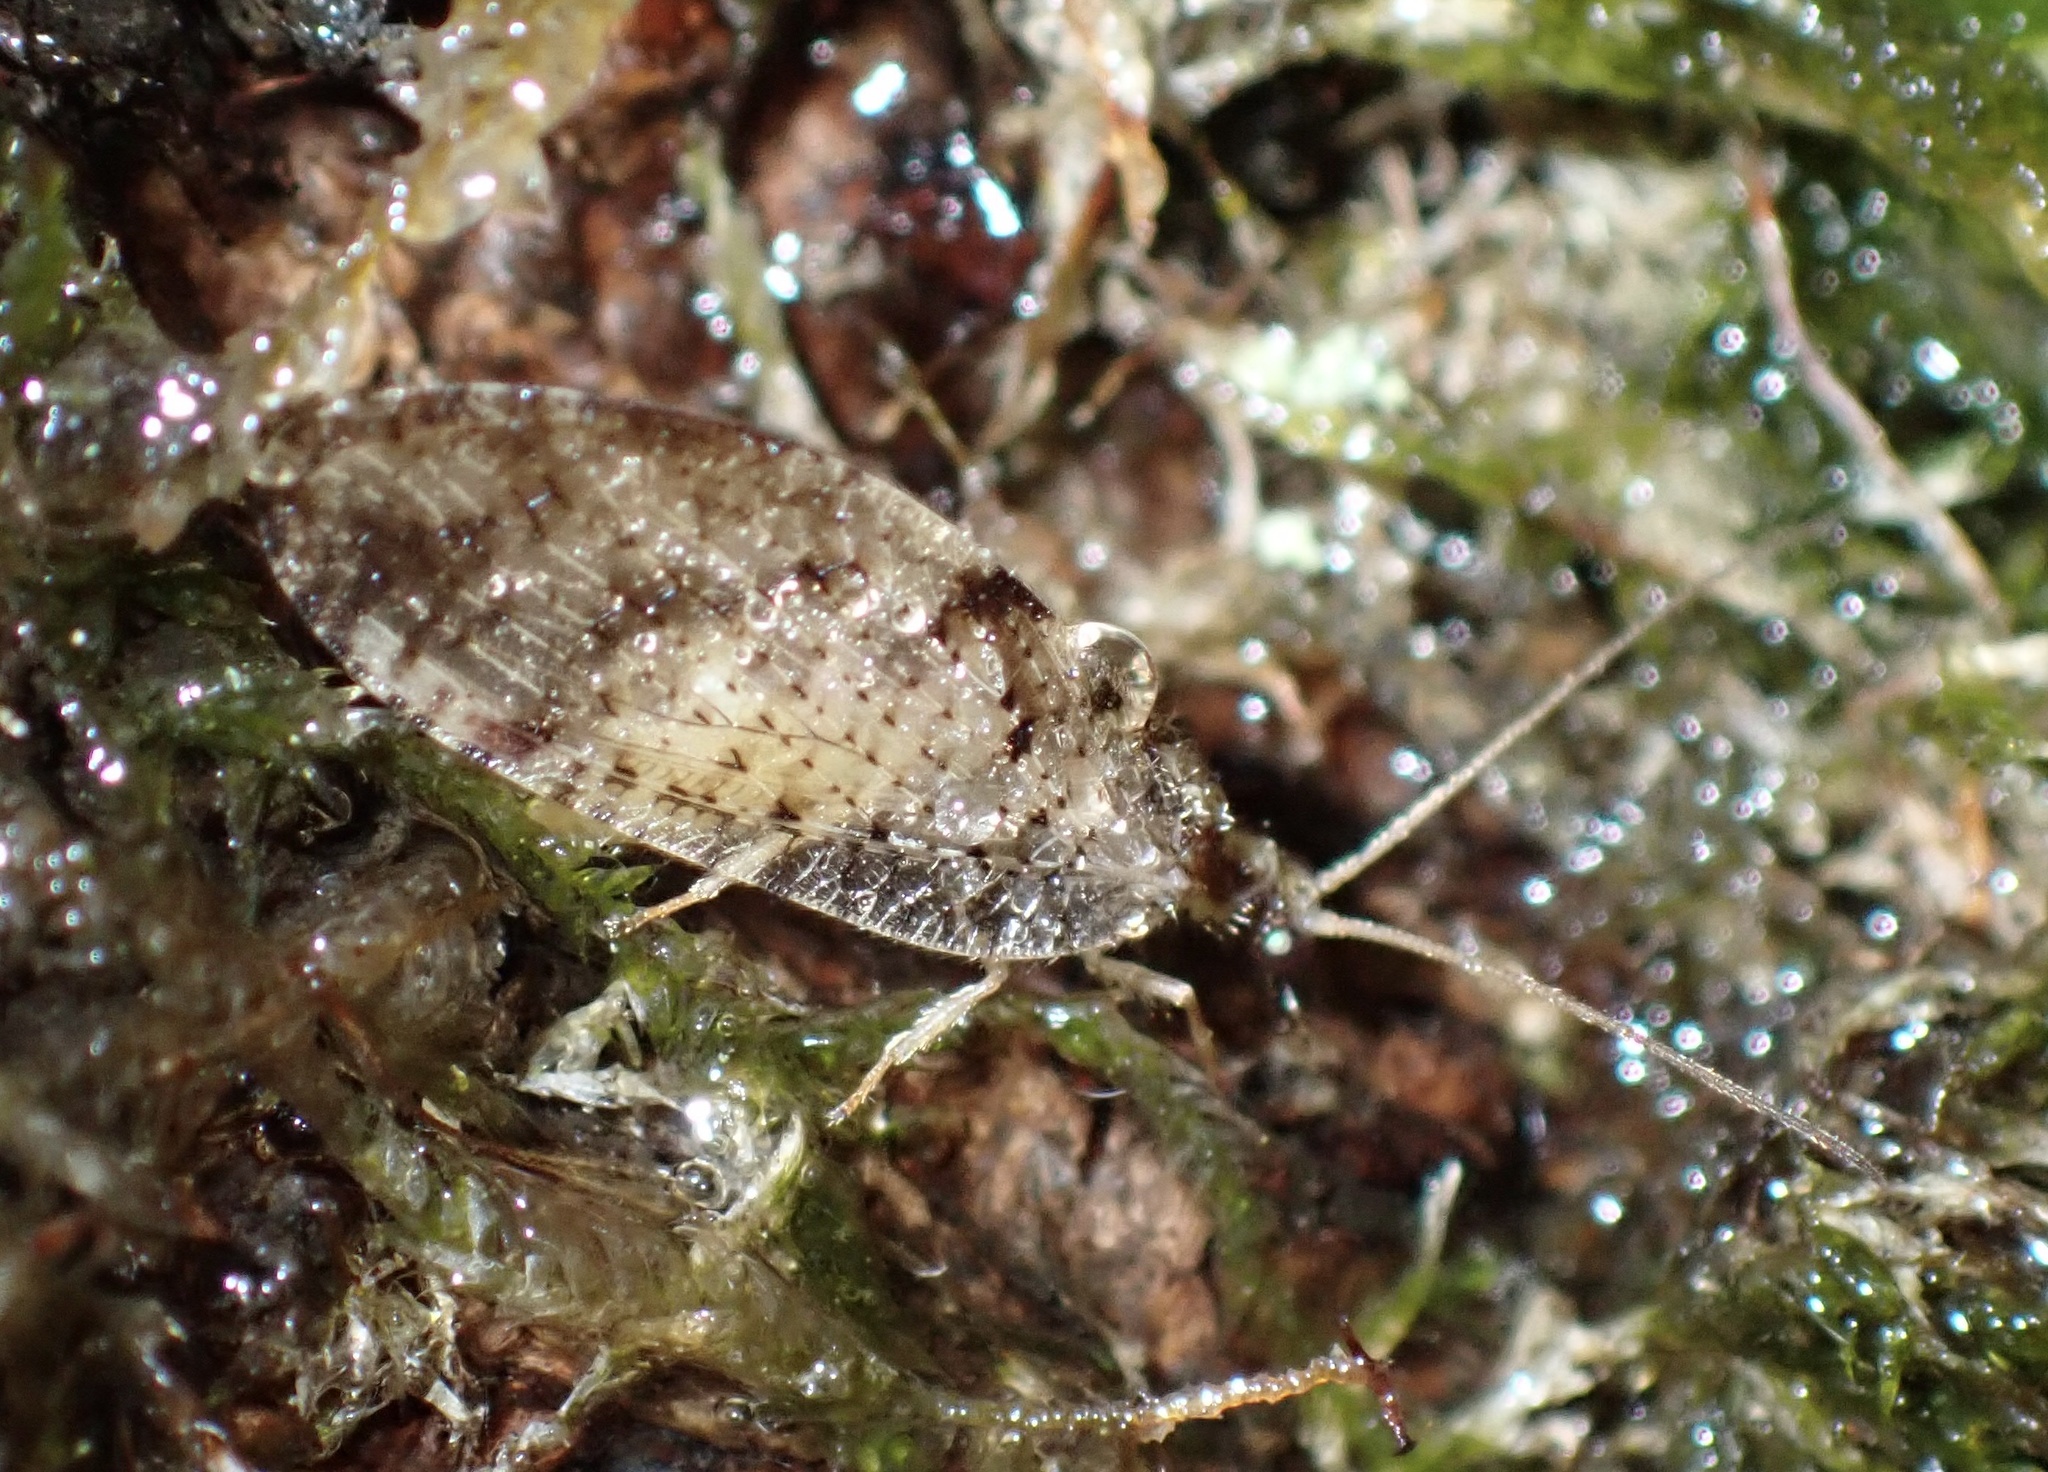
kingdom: Animalia
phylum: Arthropoda
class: Insecta
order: Neuroptera
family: Hemerobiidae
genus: Hemerobius
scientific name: Hemerobius humulinus
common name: Humulin brown lacewing
